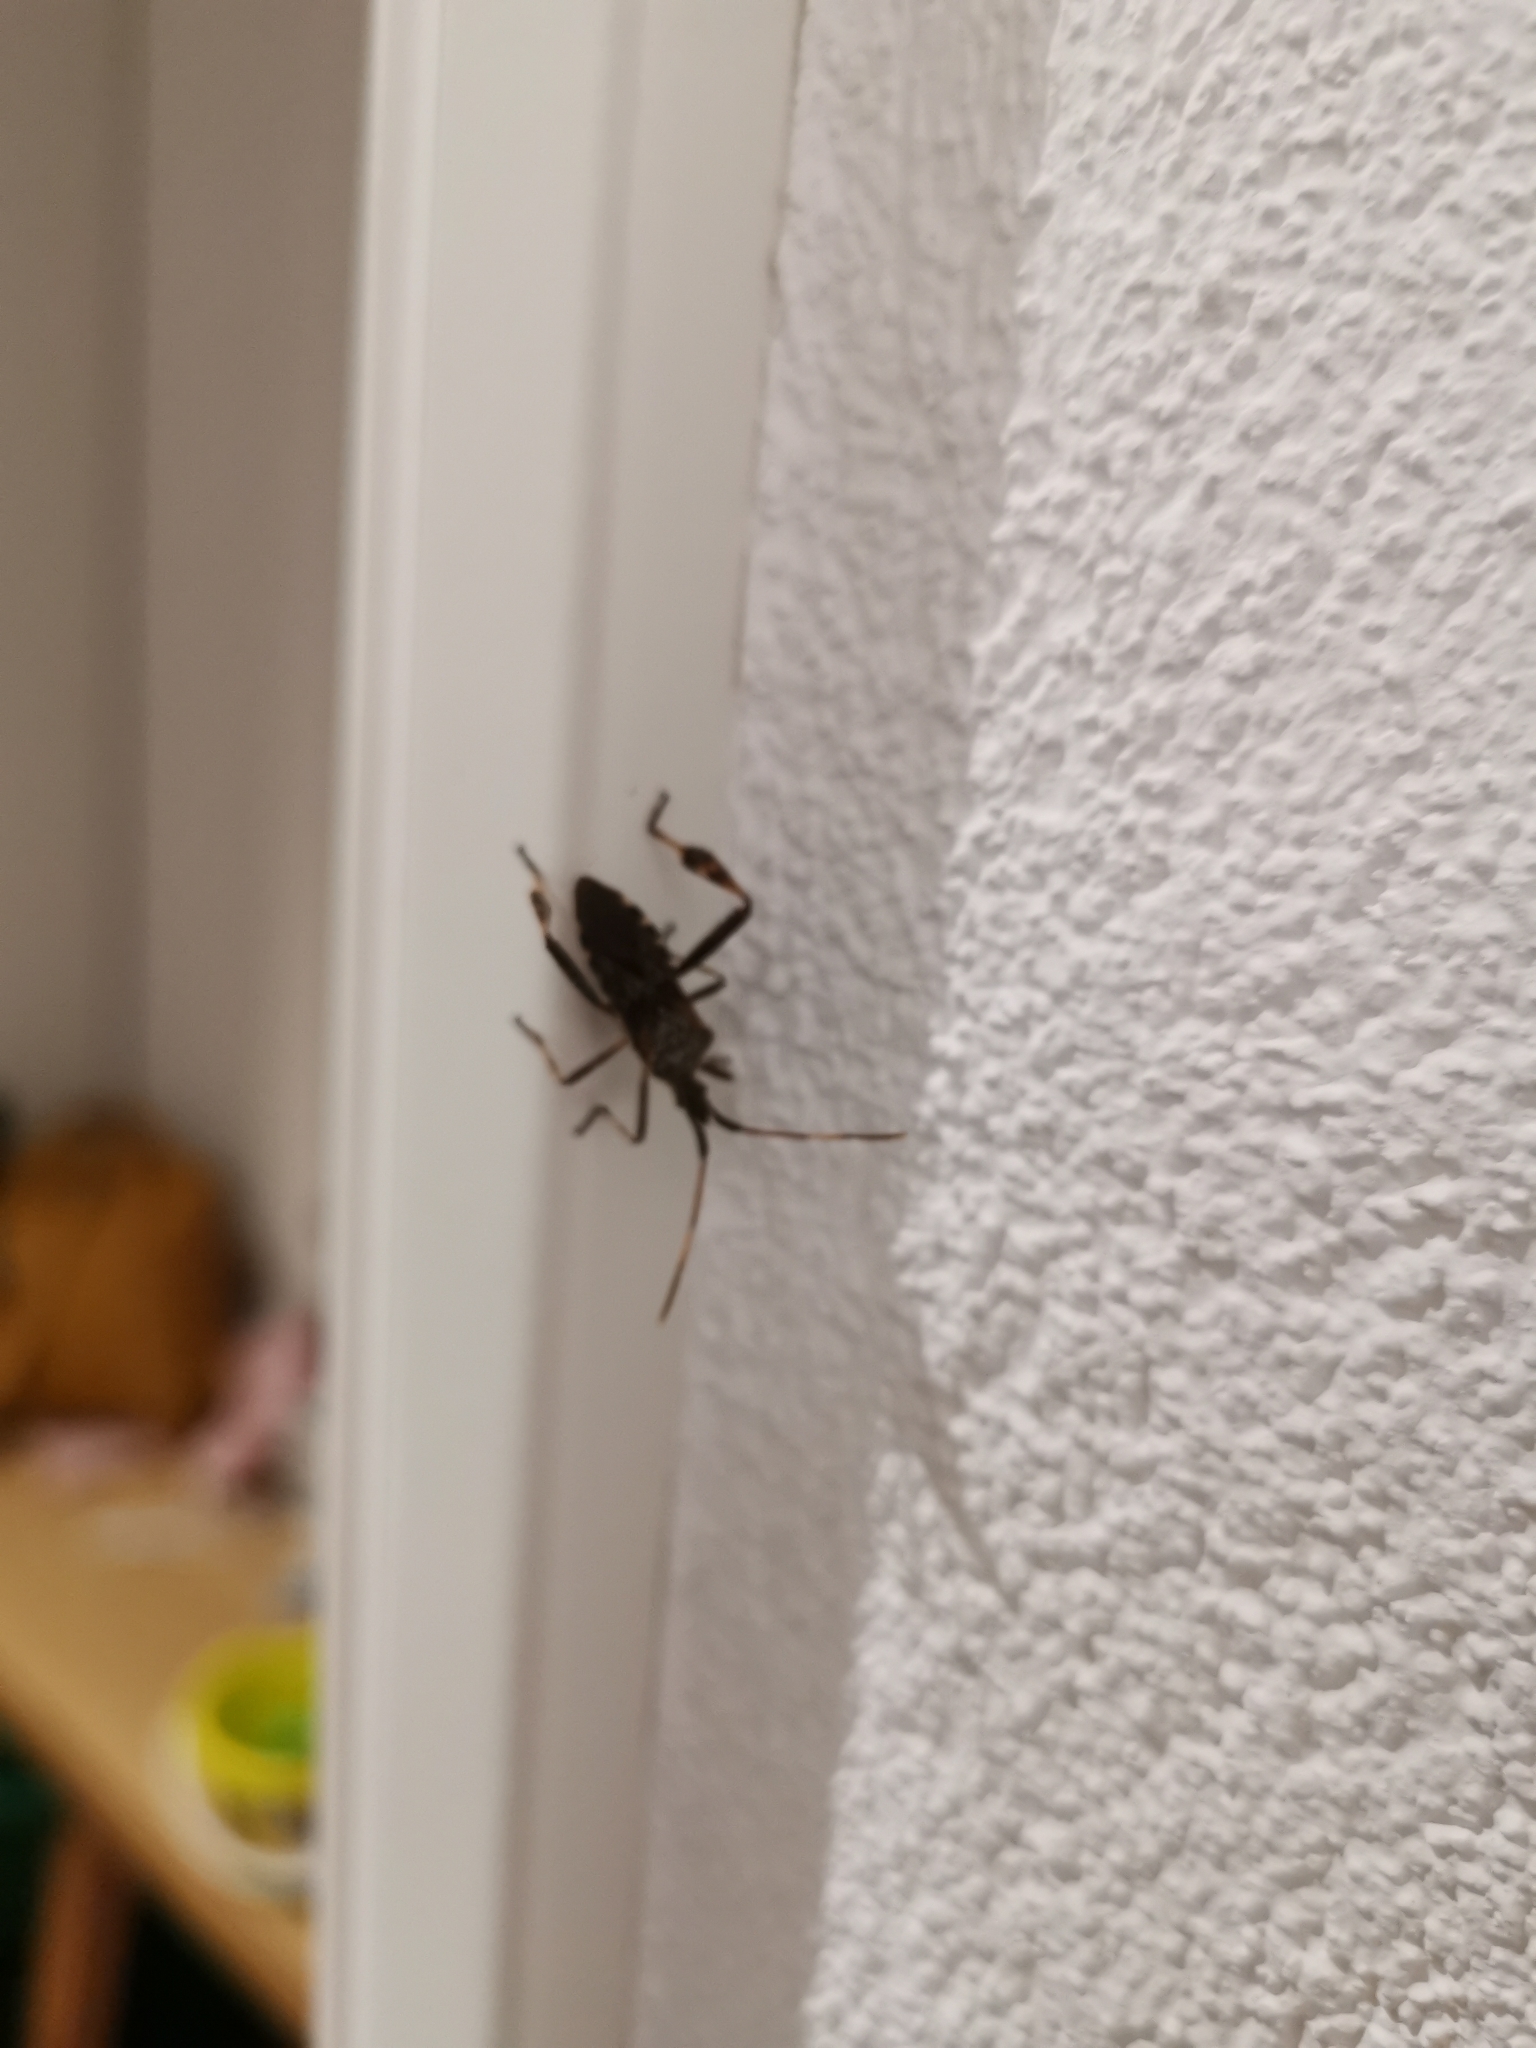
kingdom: Animalia
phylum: Arthropoda
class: Insecta
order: Hemiptera
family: Coreidae
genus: Leptoglossus
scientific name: Leptoglossus occidentalis
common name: Western conifer-seed bug
